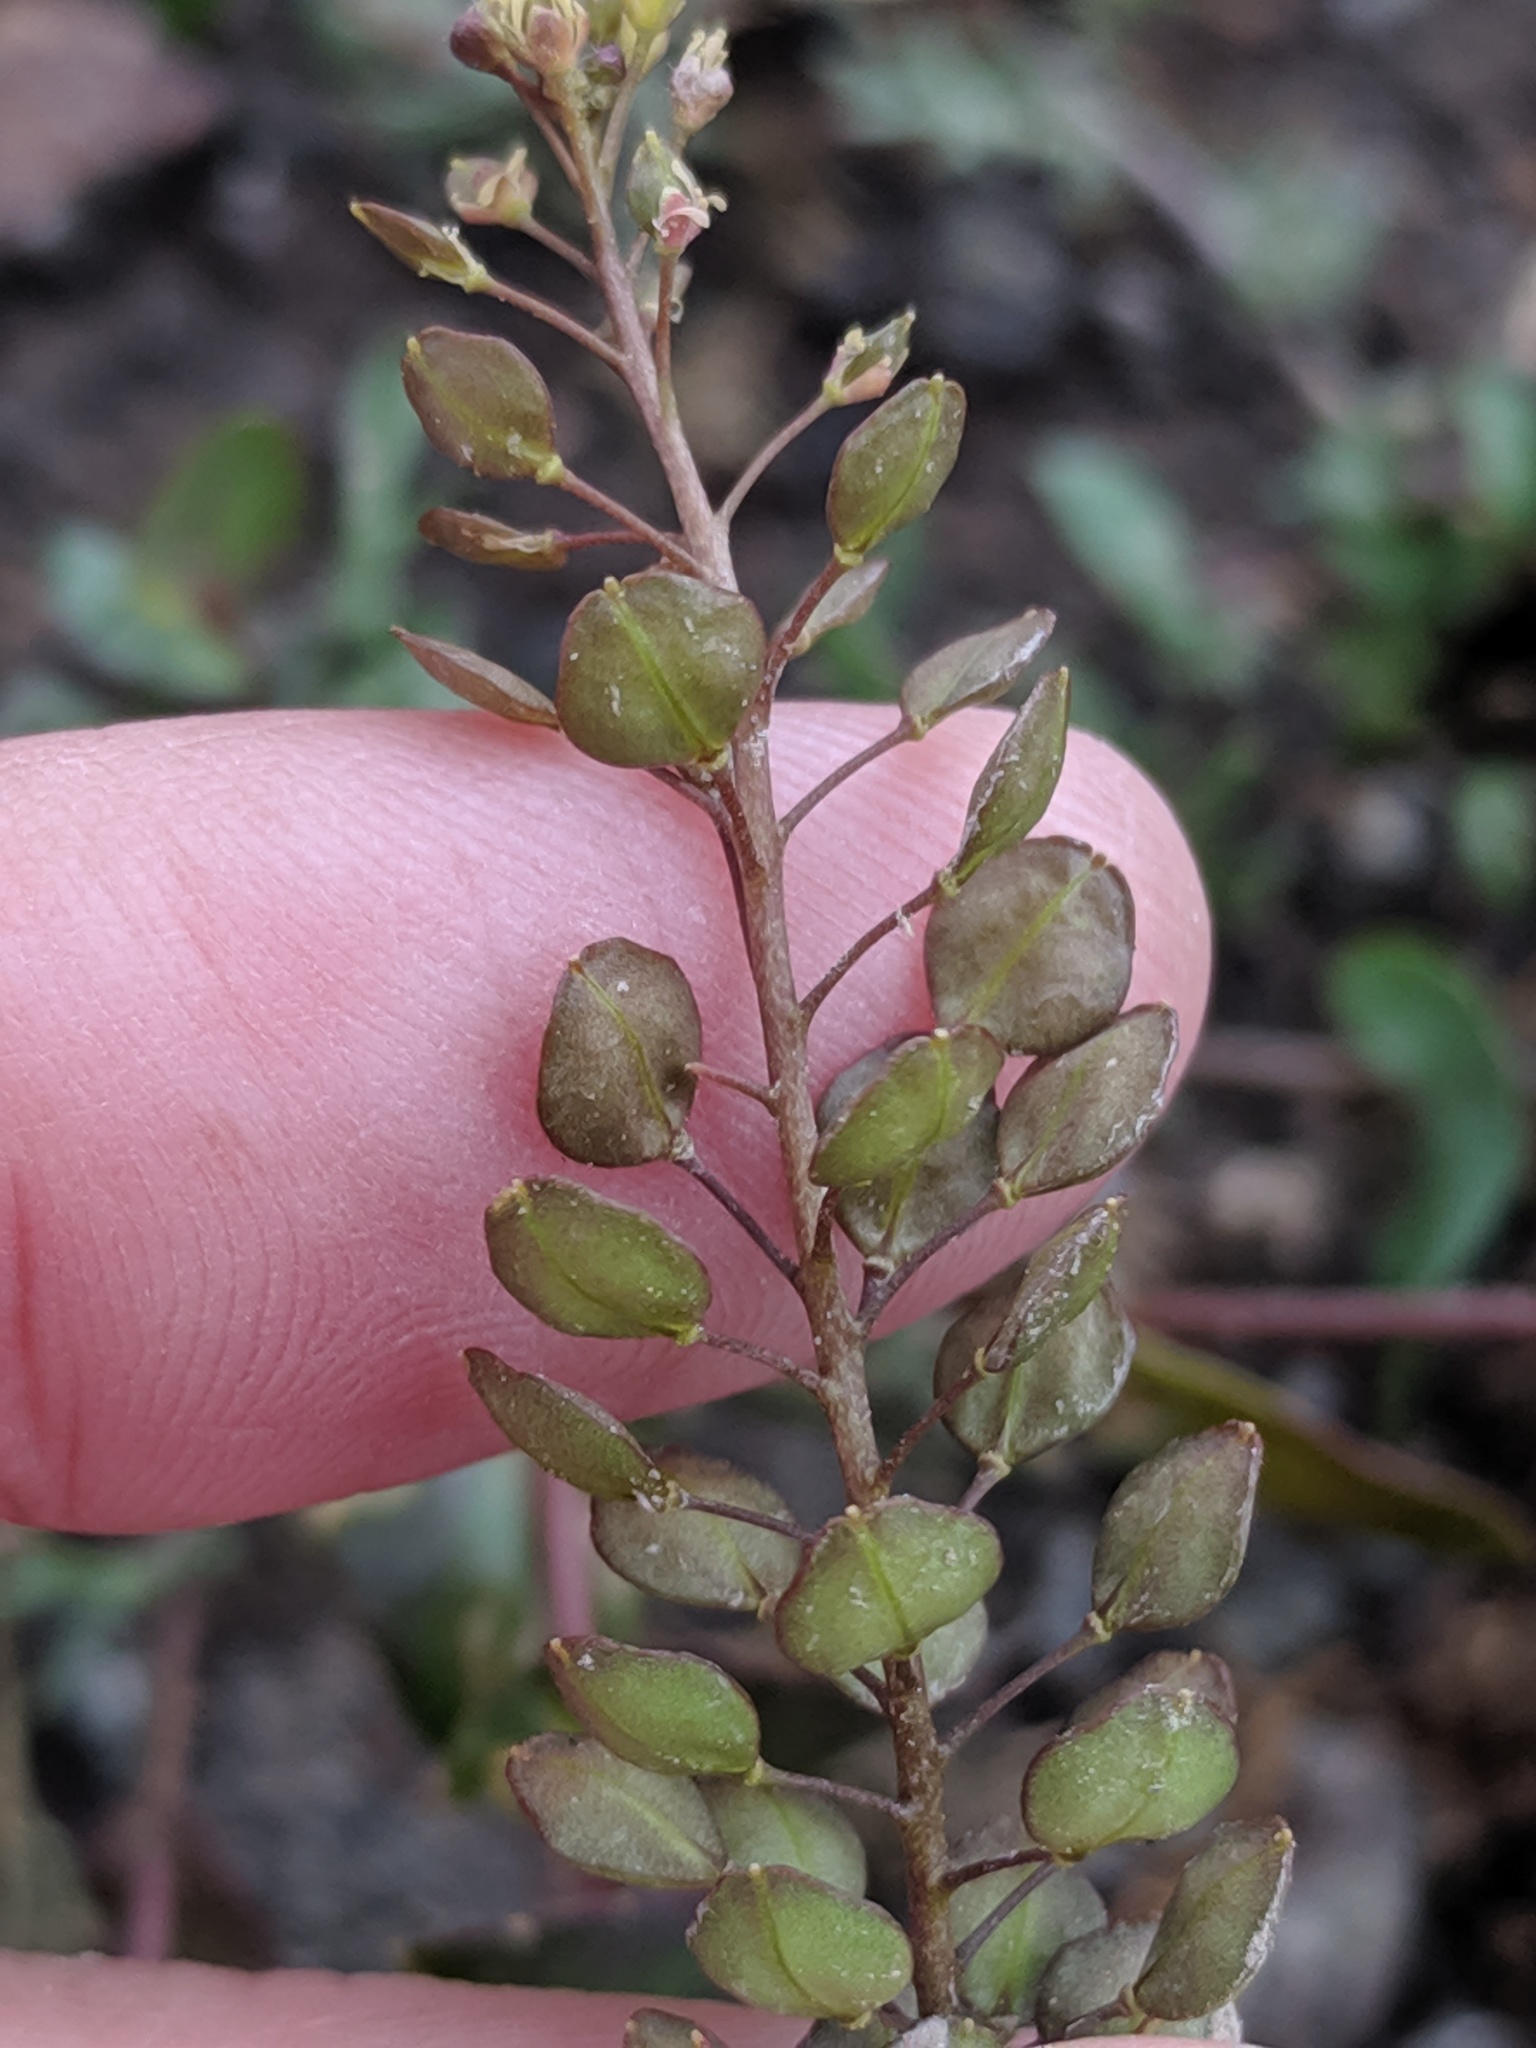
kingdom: Plantae
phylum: Tracheophyta
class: Magnoliopsida
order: Brassicales
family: Brassicaceae
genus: Lepidium
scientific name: Lepidium perfoliatum
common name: Perfoliate pepperwort
